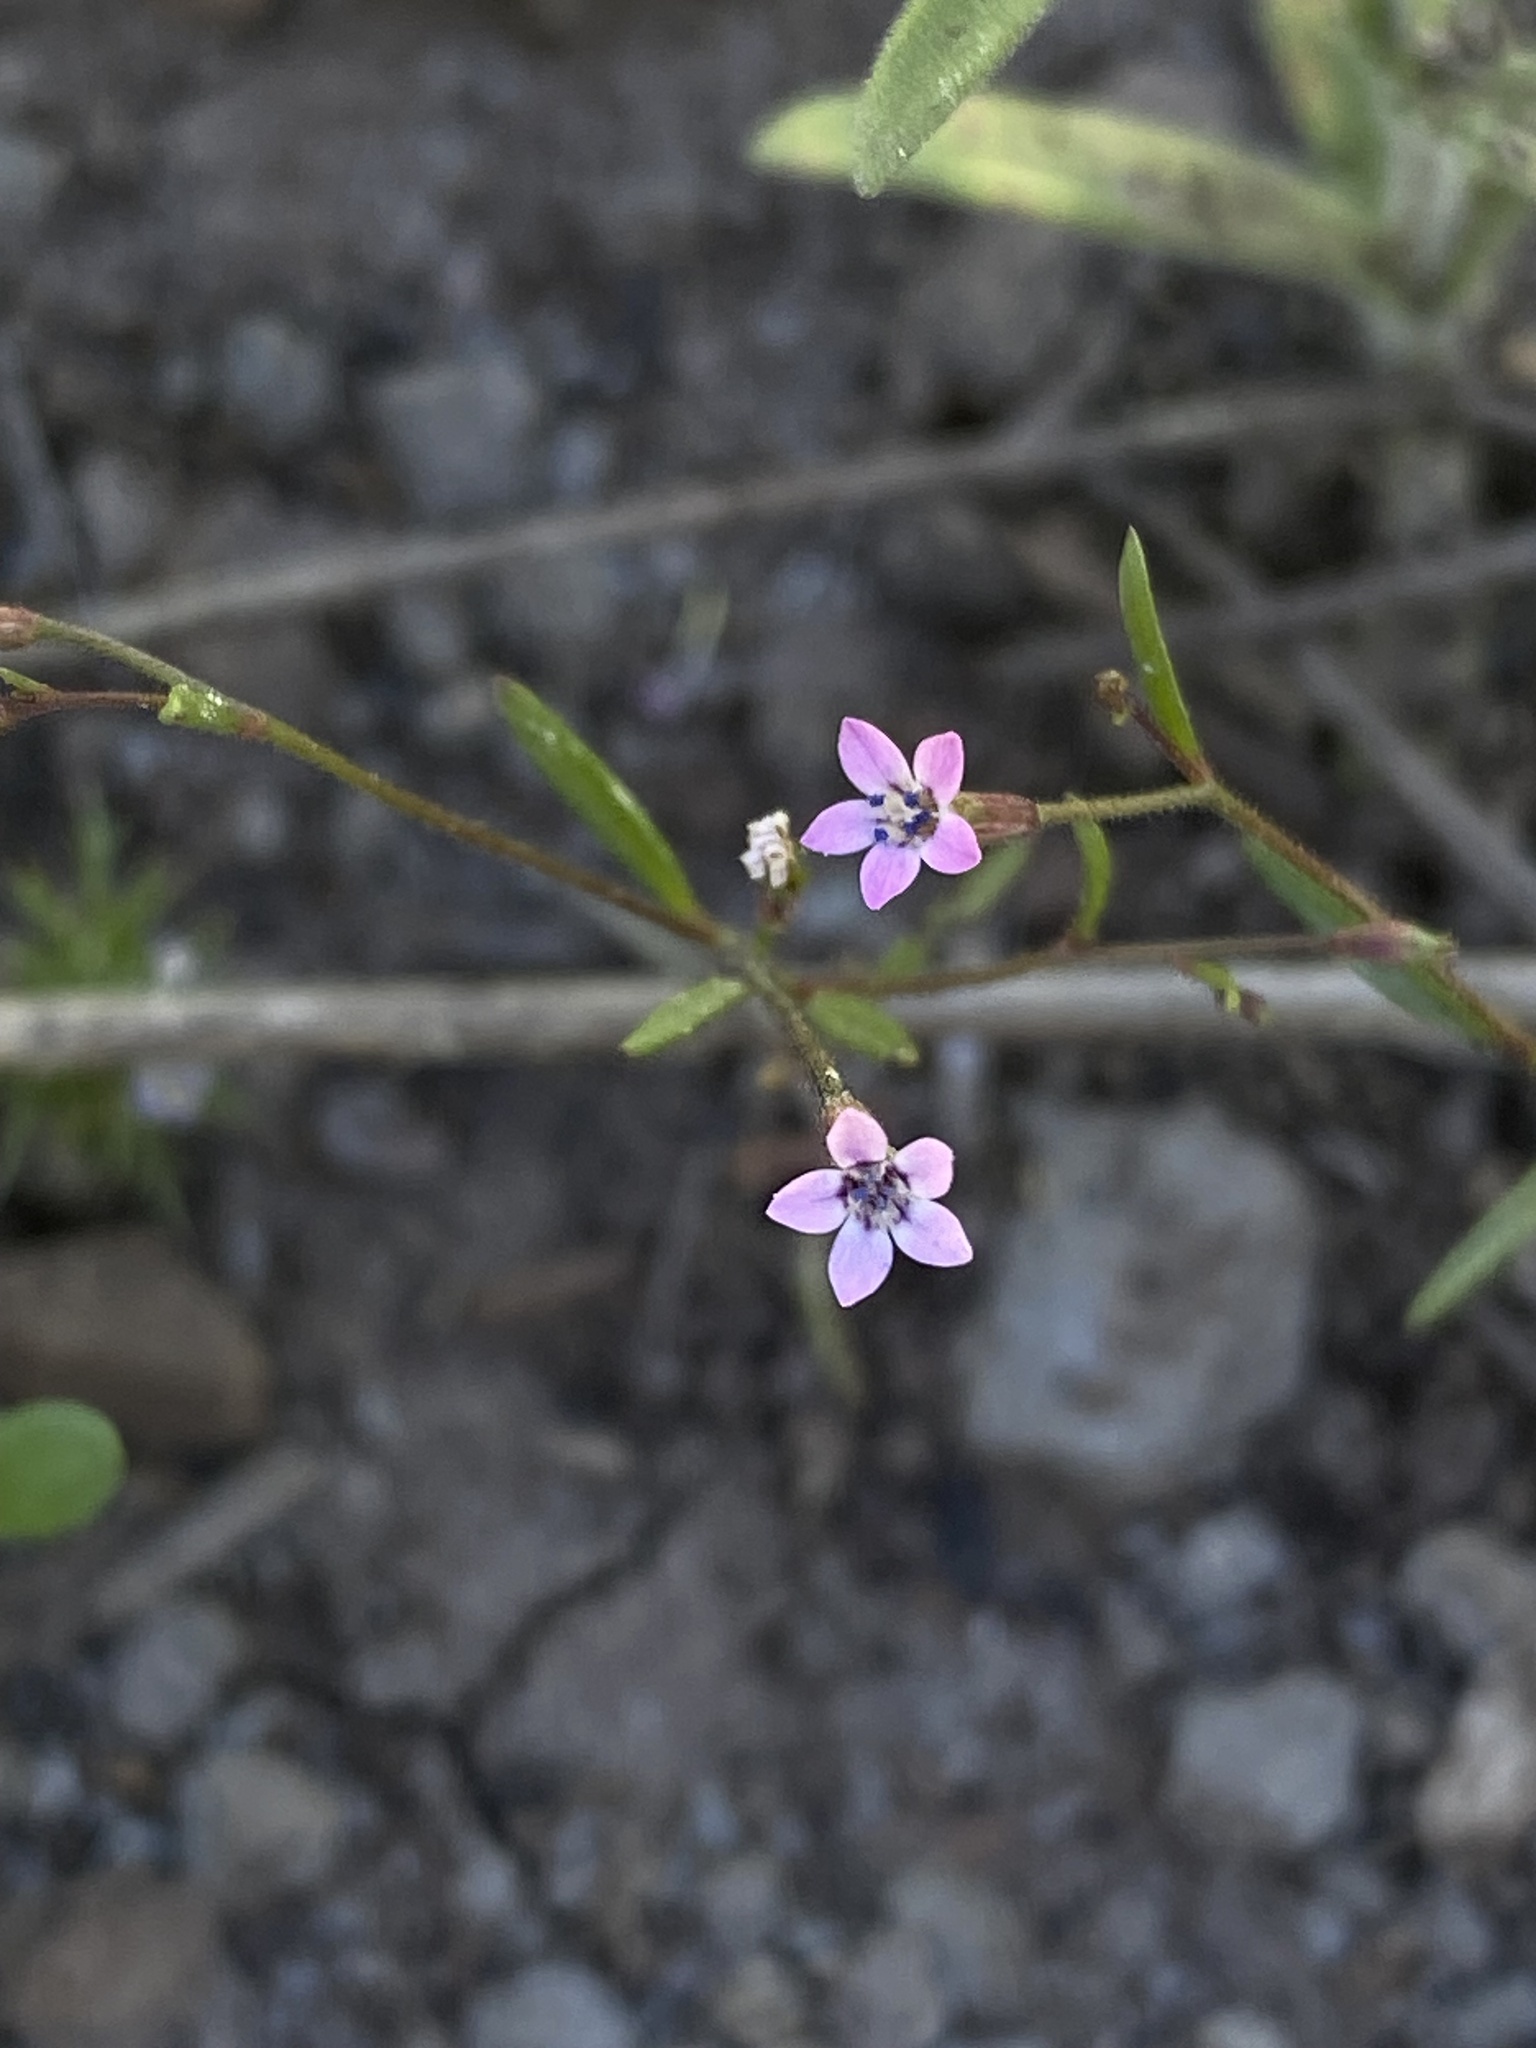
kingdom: Plantae
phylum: Tracheophyta
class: Magnoliopsida
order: Ericales
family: Polemoniaceae
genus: Navarretia
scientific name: Navarretia sinistra
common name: Alva day's pincushionplant
